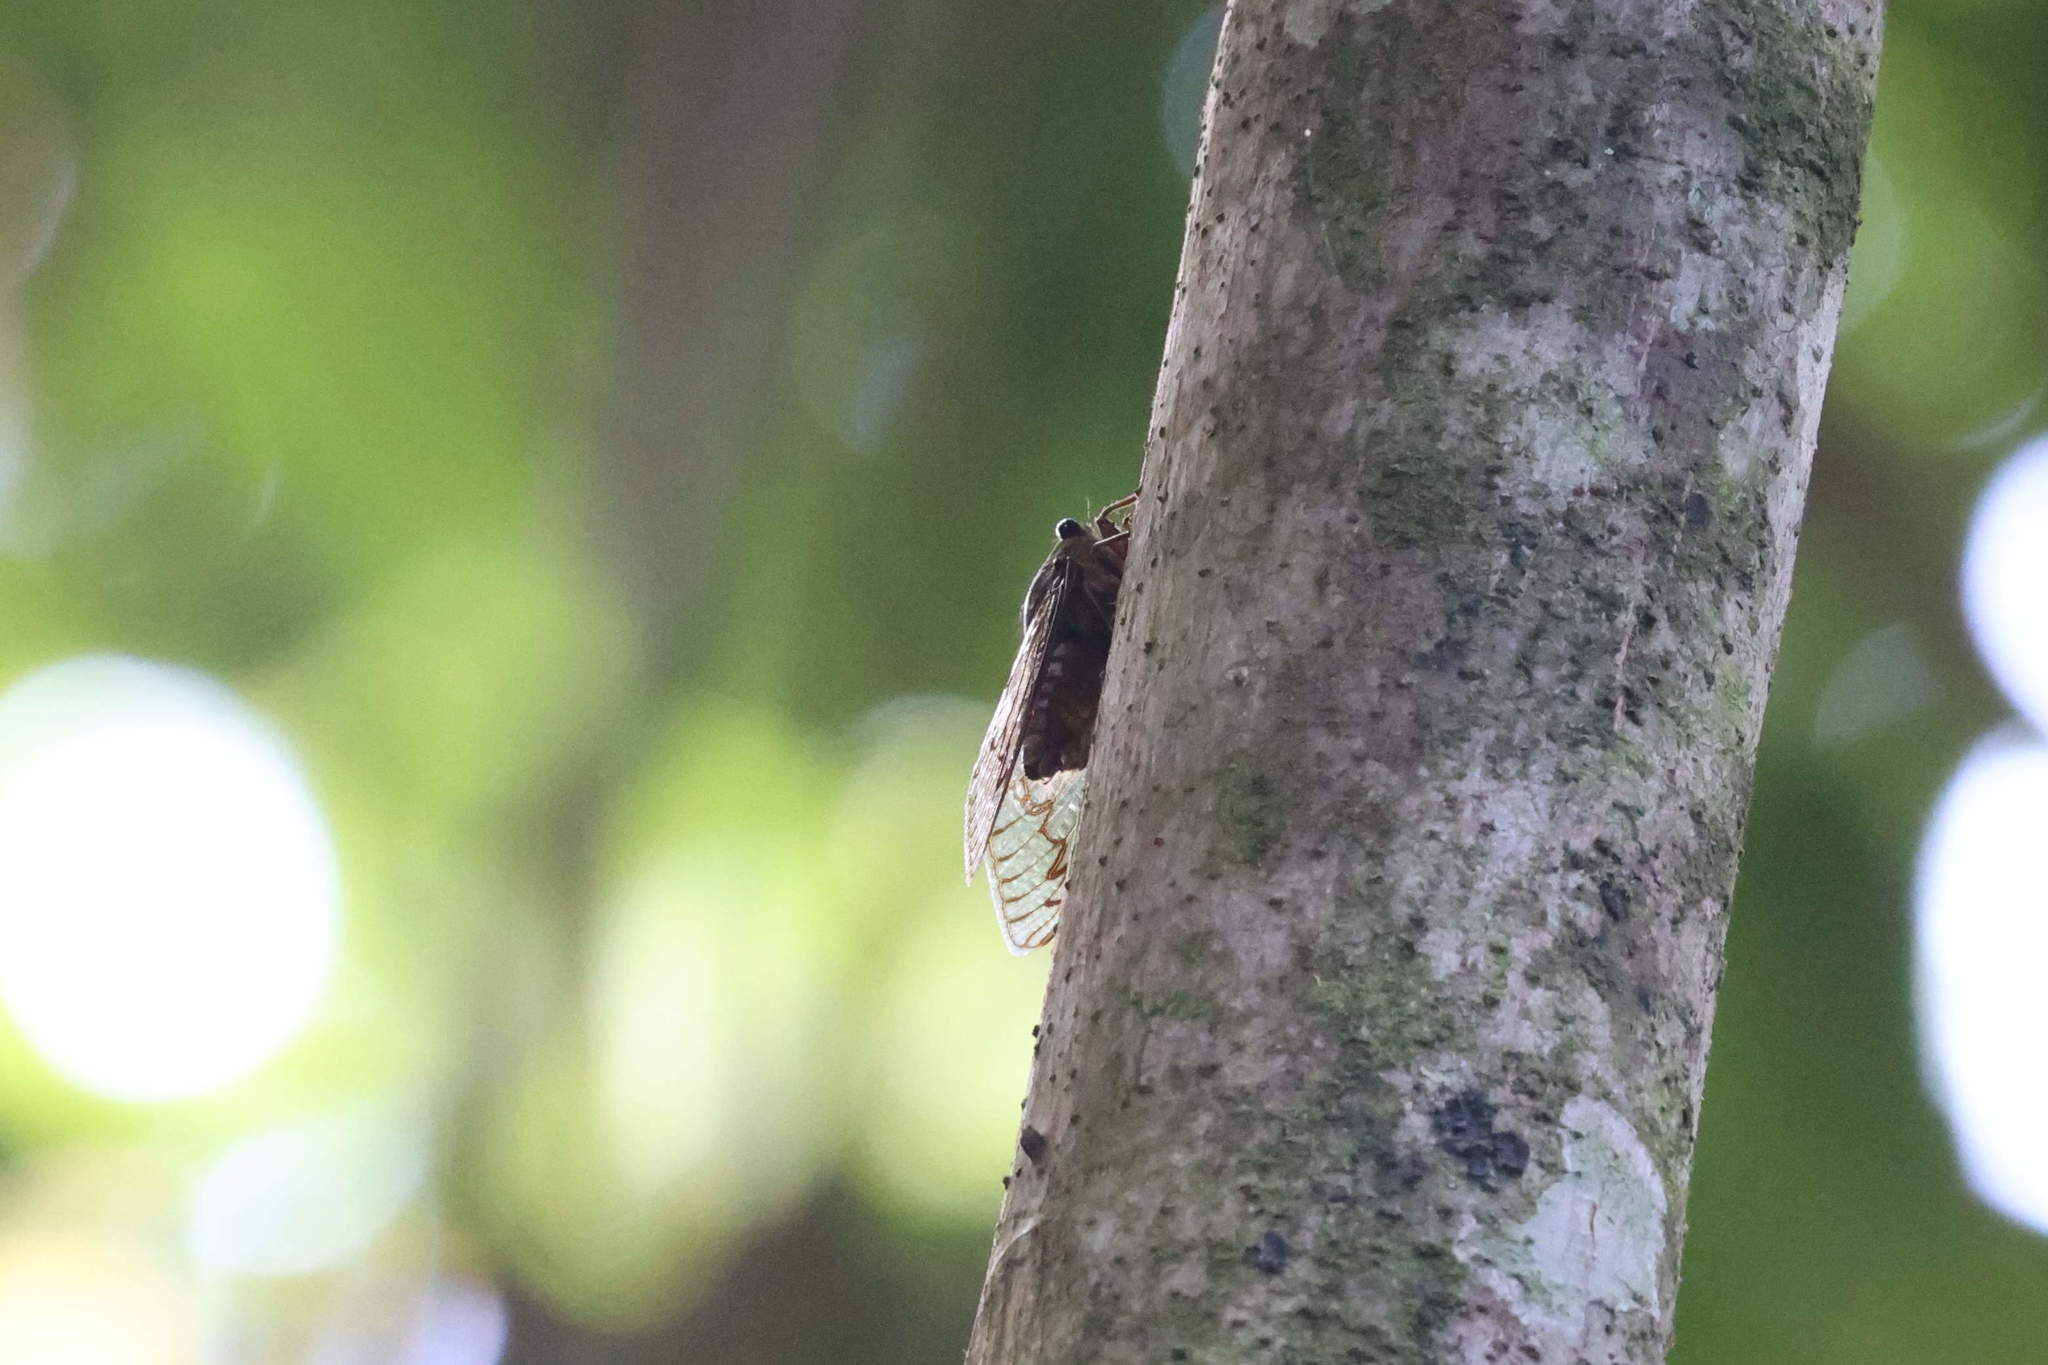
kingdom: Animalia
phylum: Arthropoda
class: Insecta
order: Hemiptera
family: Cicadidae
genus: Fidicina
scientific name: Fidicina mannifera
